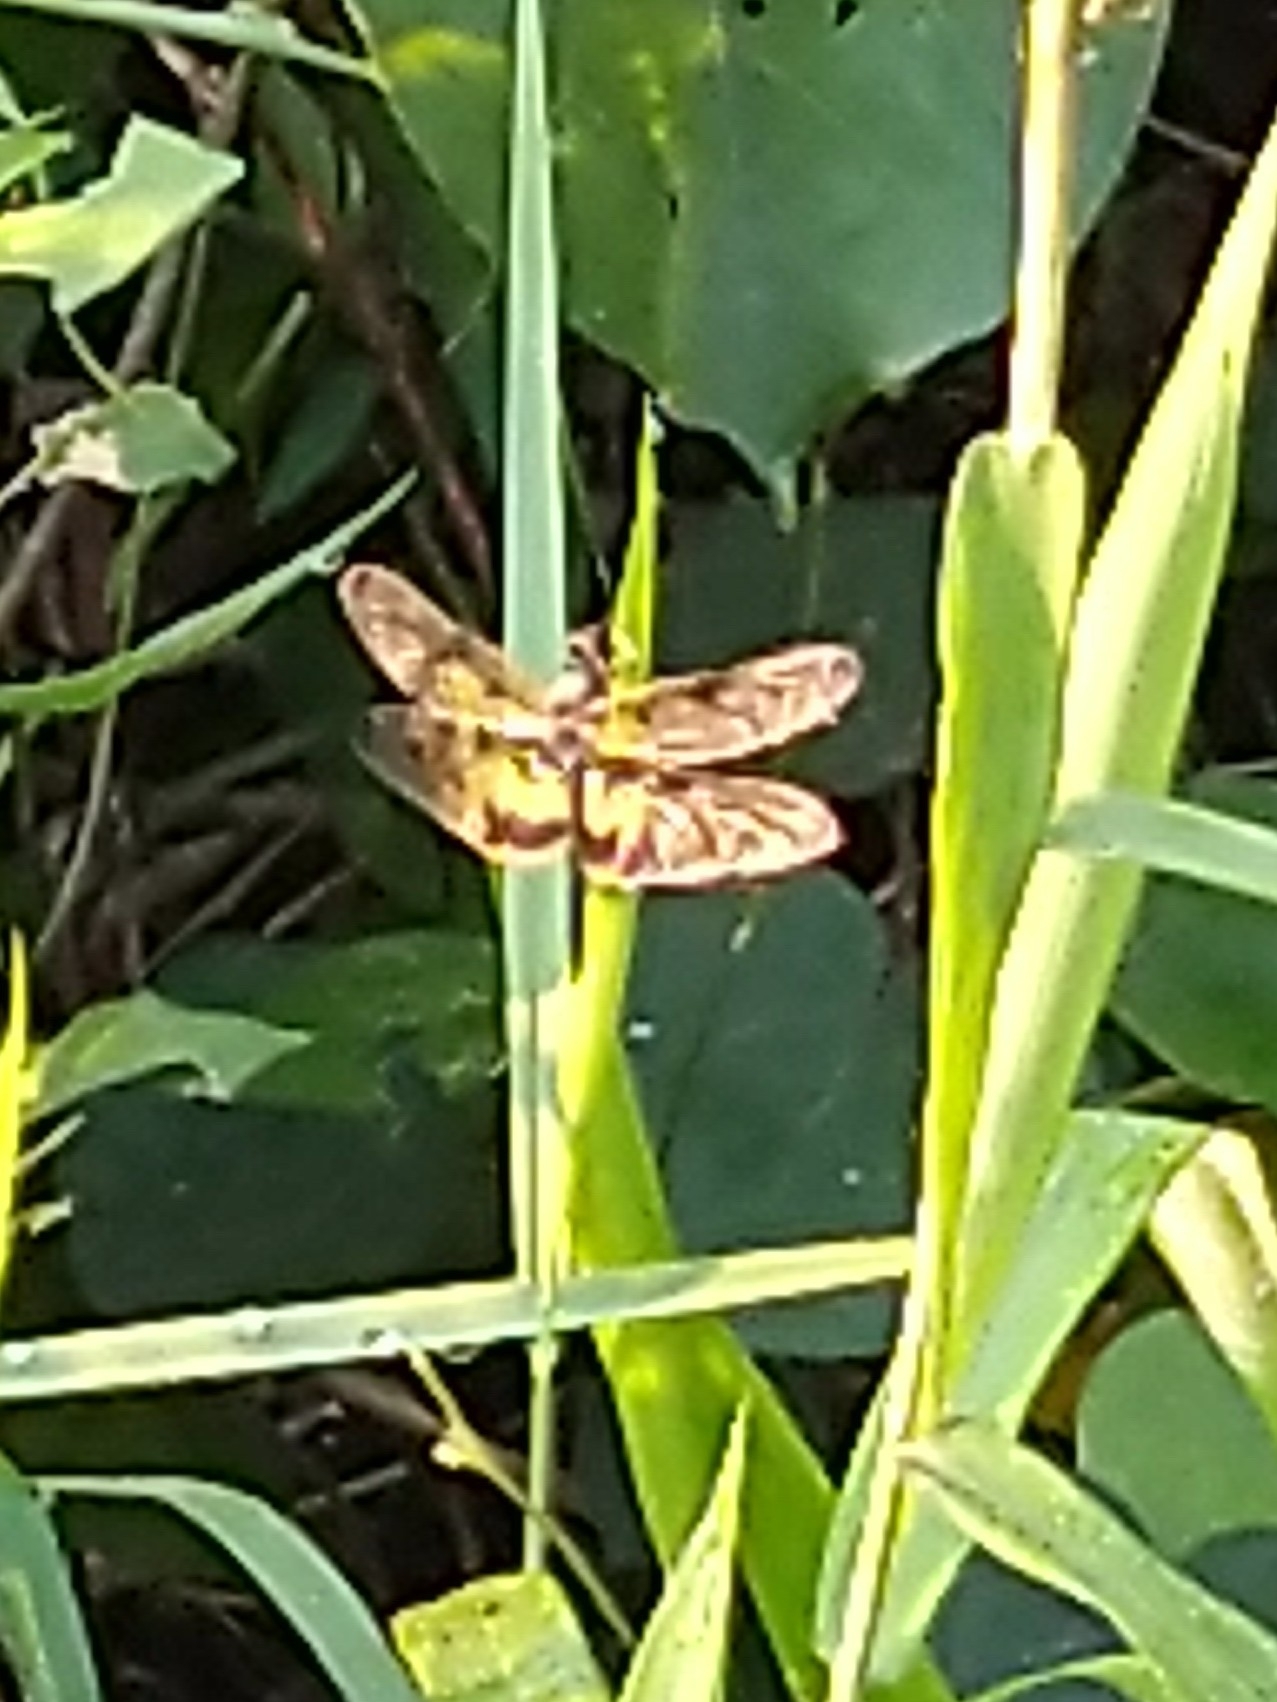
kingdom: Animalia
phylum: Arthropoda
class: Insecta
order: Odonata
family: Libellulidae
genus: Rhyothemis
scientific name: Rhyothemis variegata
